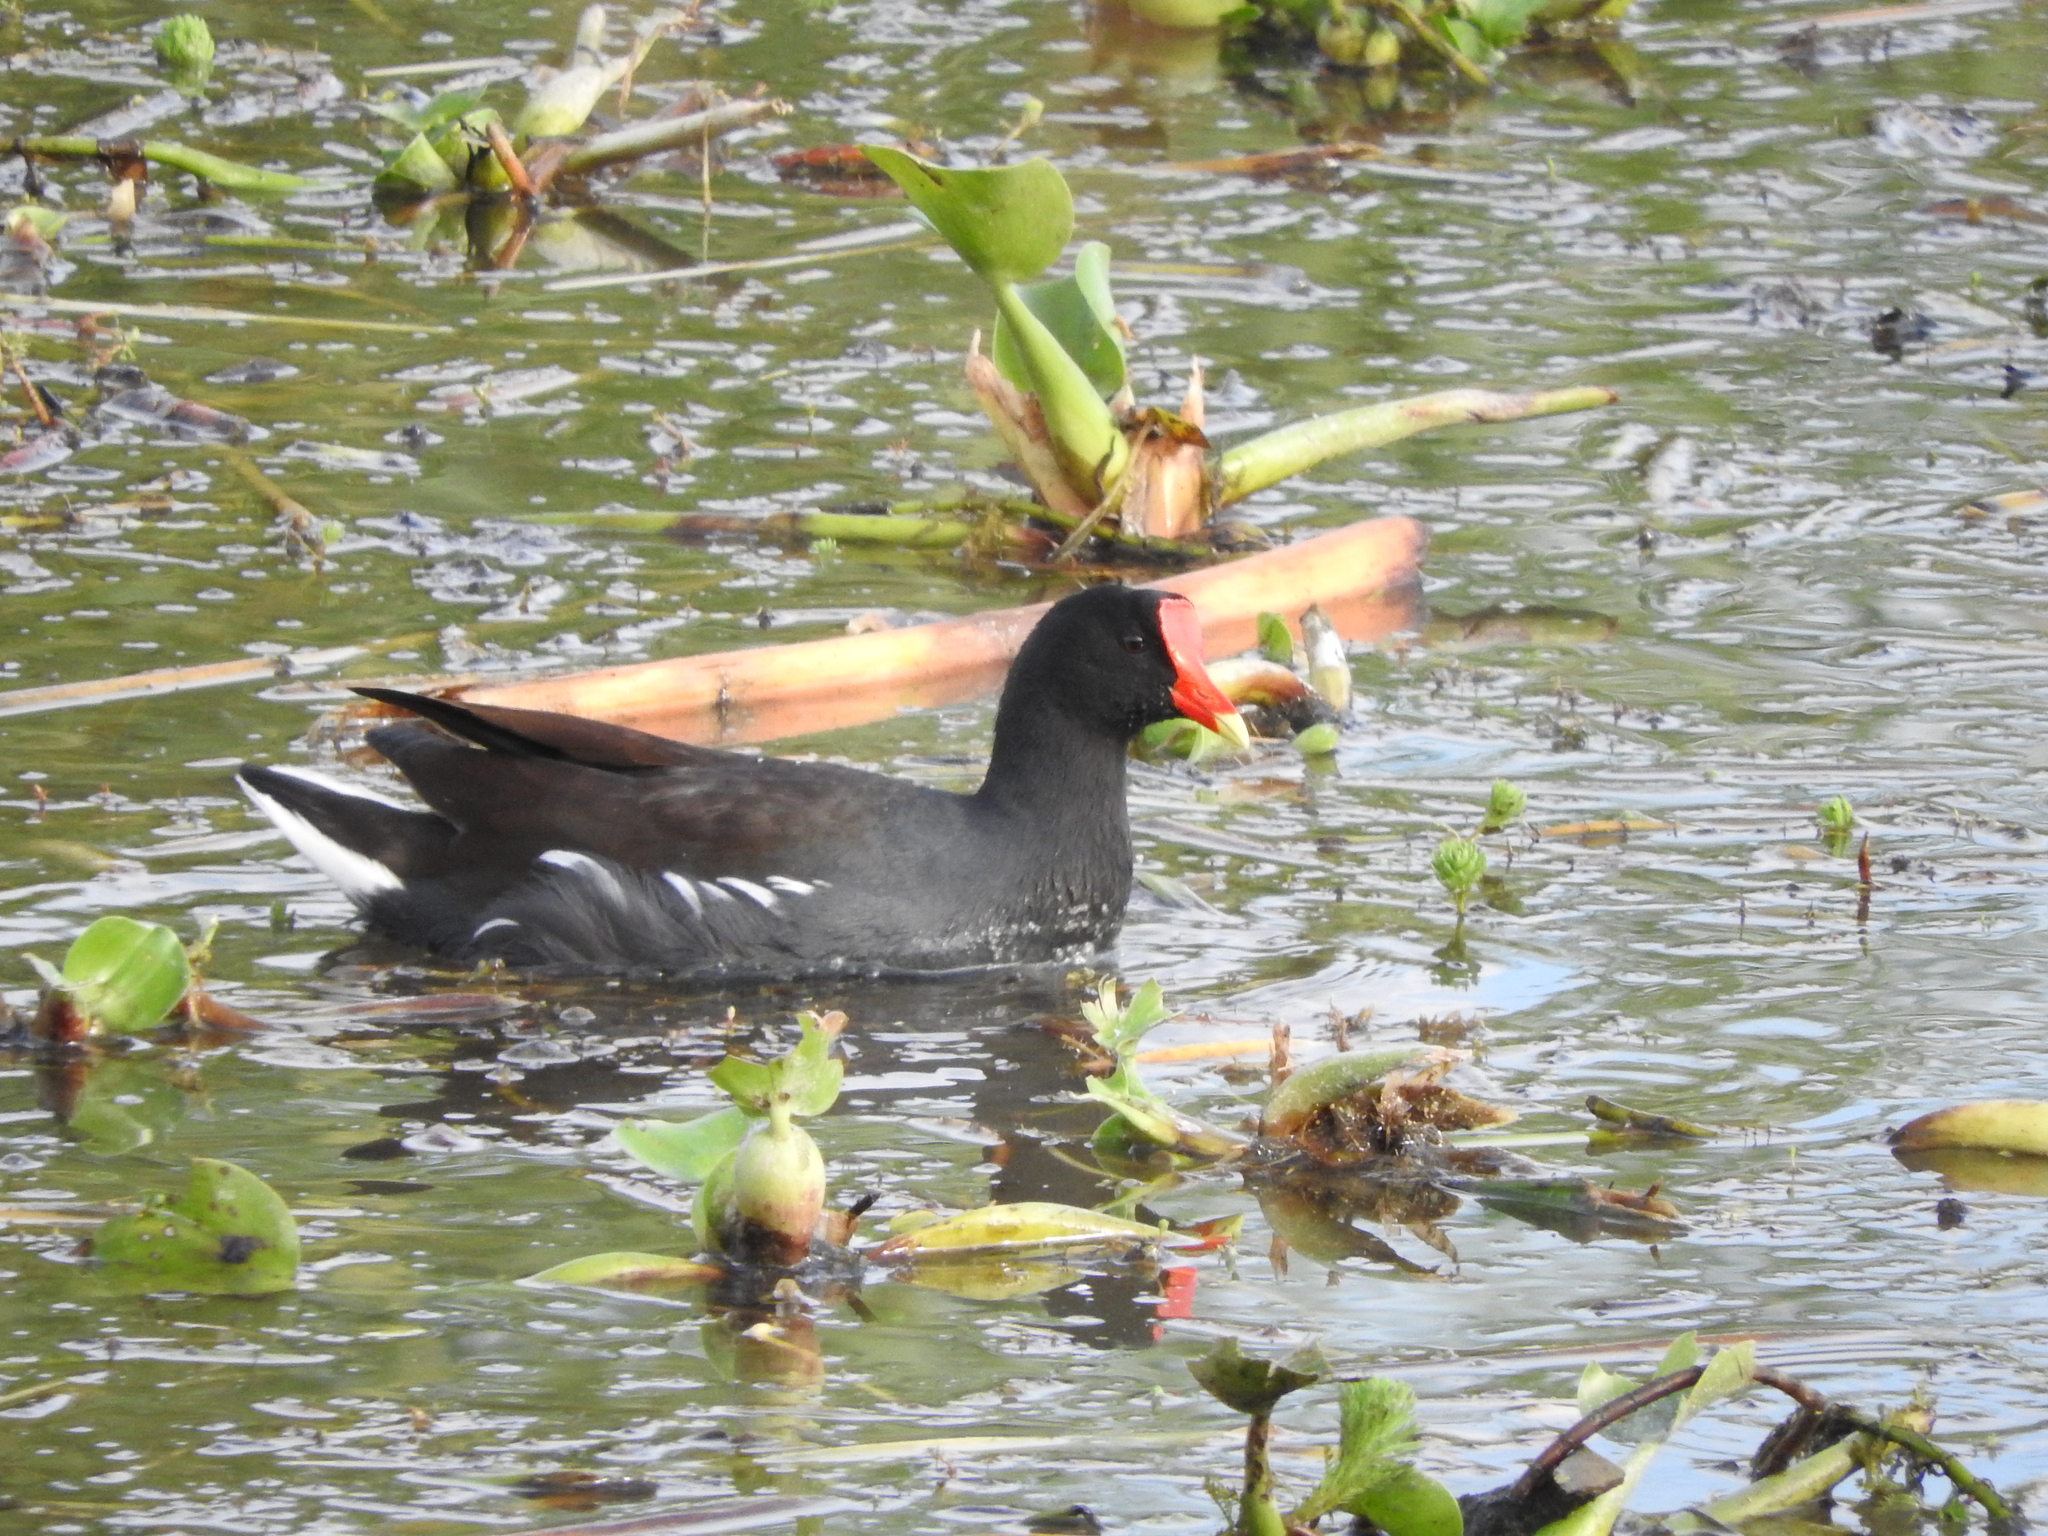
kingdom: Animalia
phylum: Chordata
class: Aves
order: Gruiformes
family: Rallidae
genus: Gallinula
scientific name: Gallinula chloropus
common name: Common moorhen
